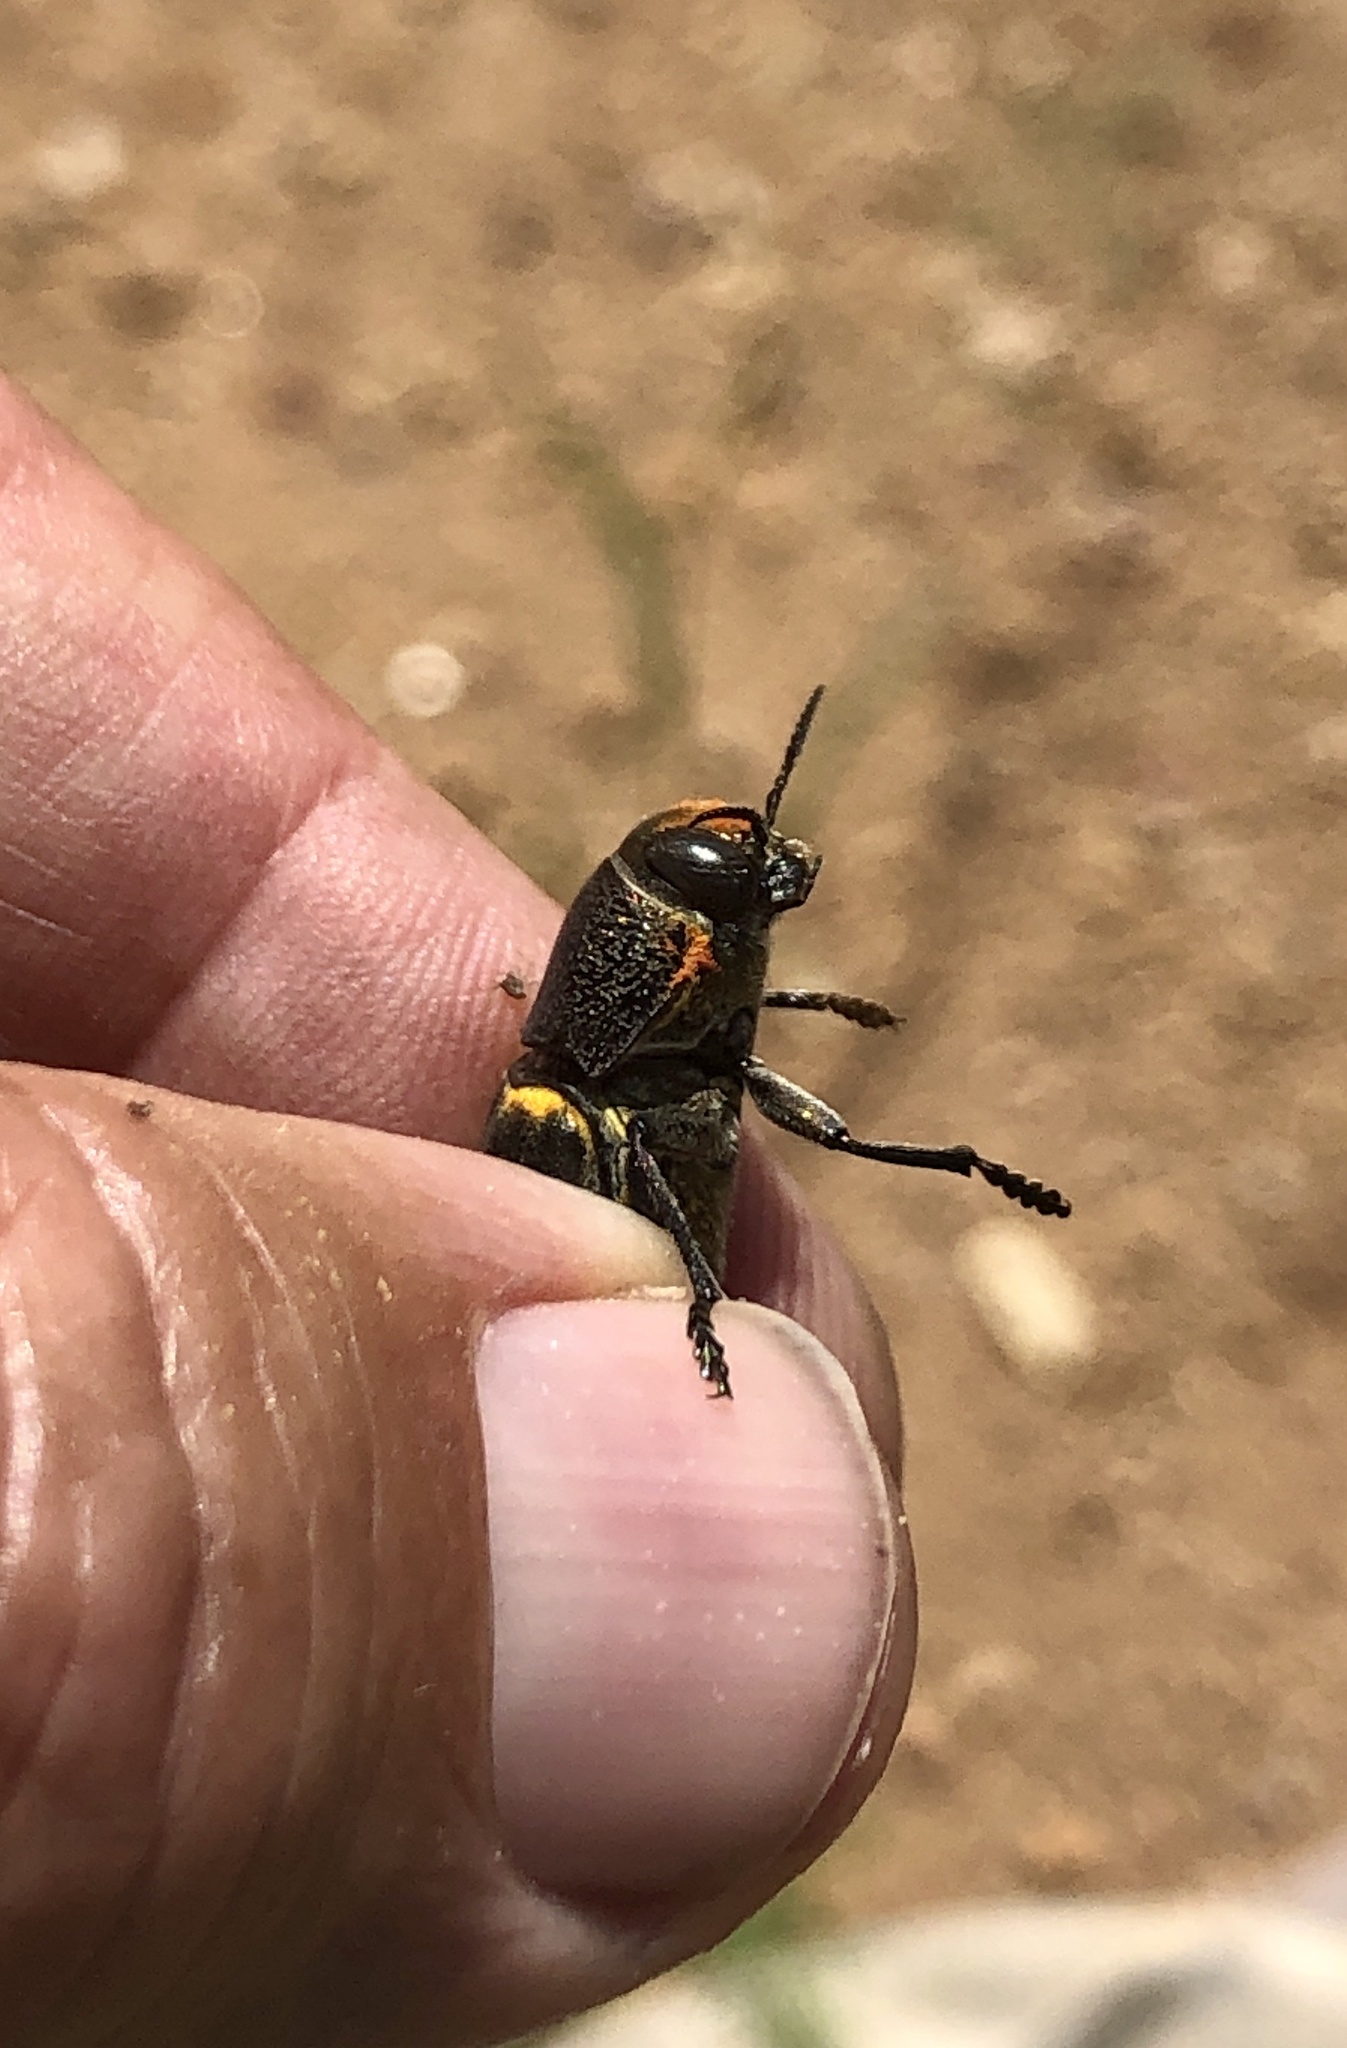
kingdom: Animalia
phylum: Arthropoda
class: Insecta
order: Coleoptera
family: Buprestidae
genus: Hippomelas
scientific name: Hippomelas sphenicus
